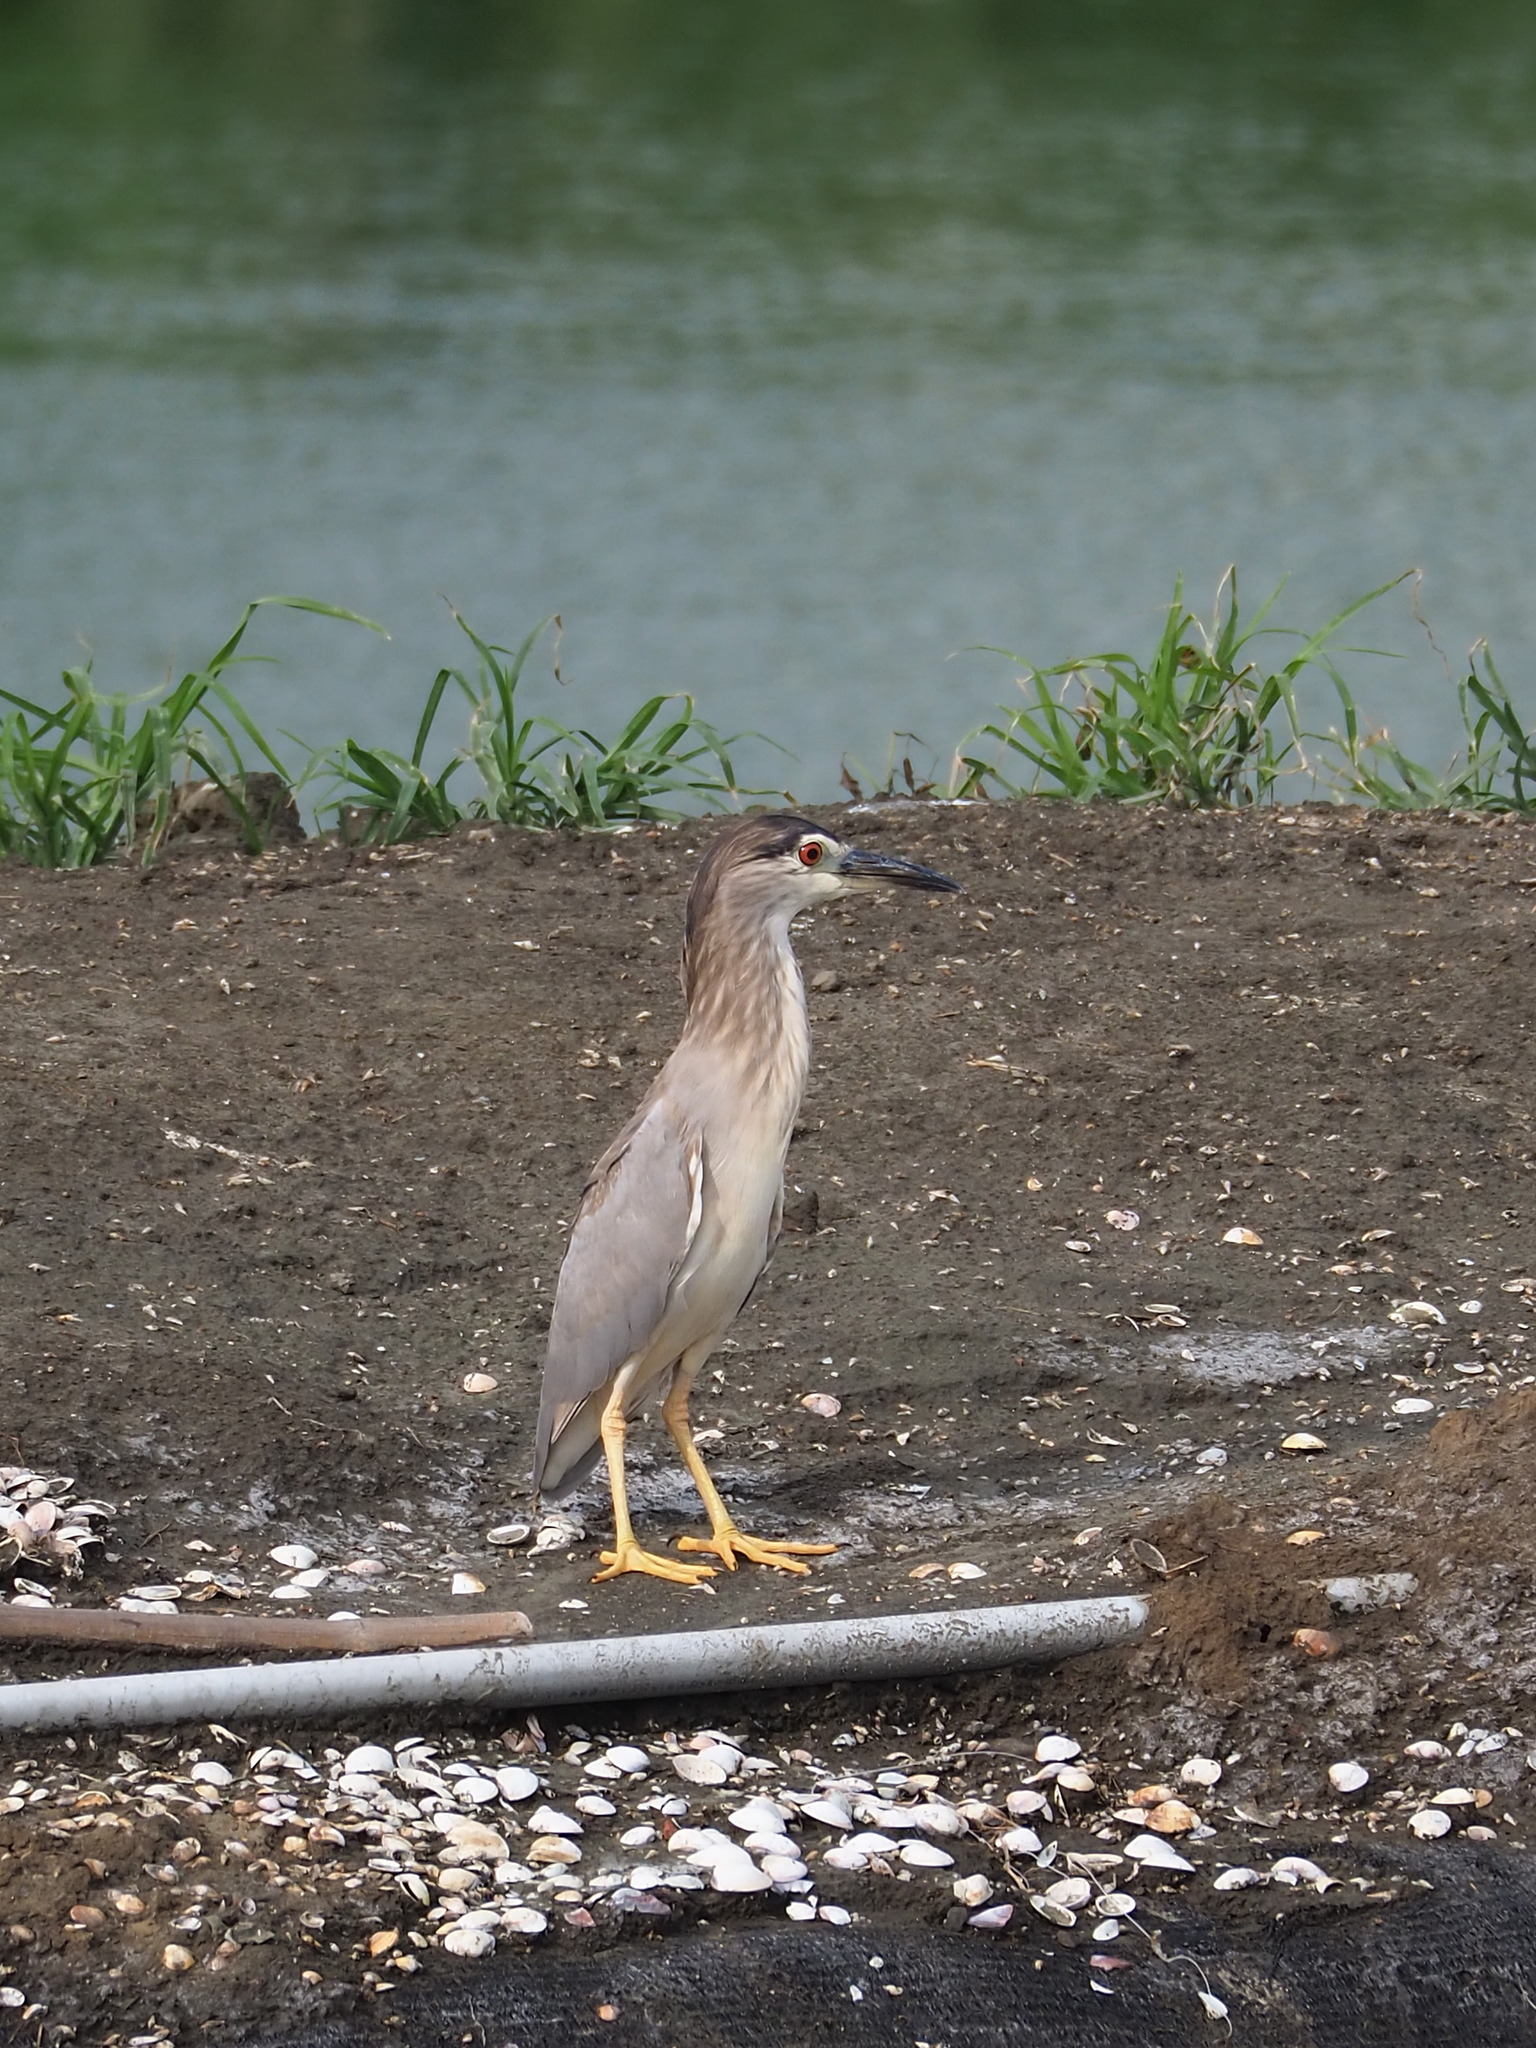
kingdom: Animalia
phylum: Chordata
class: Aves
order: Pelecaniformes
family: Ardeidae
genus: Nycticorax
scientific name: Nycticorax nycticorax
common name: Black-crowned night heron
